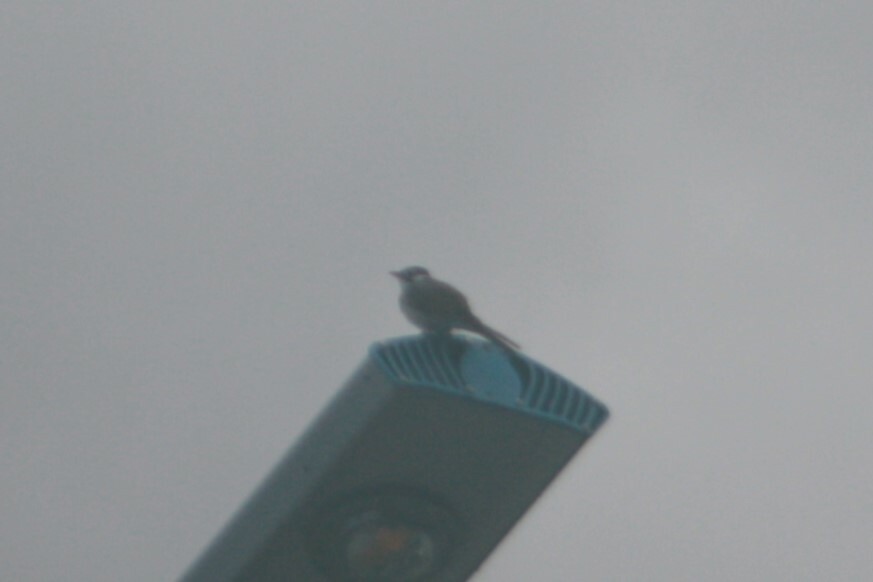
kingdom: Animalia
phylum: Chordata
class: Aves
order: Passeriformes
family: Pycnonotidae
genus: Pycnonotus
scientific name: Pycnonotus taivanus
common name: Styan's bulbul
